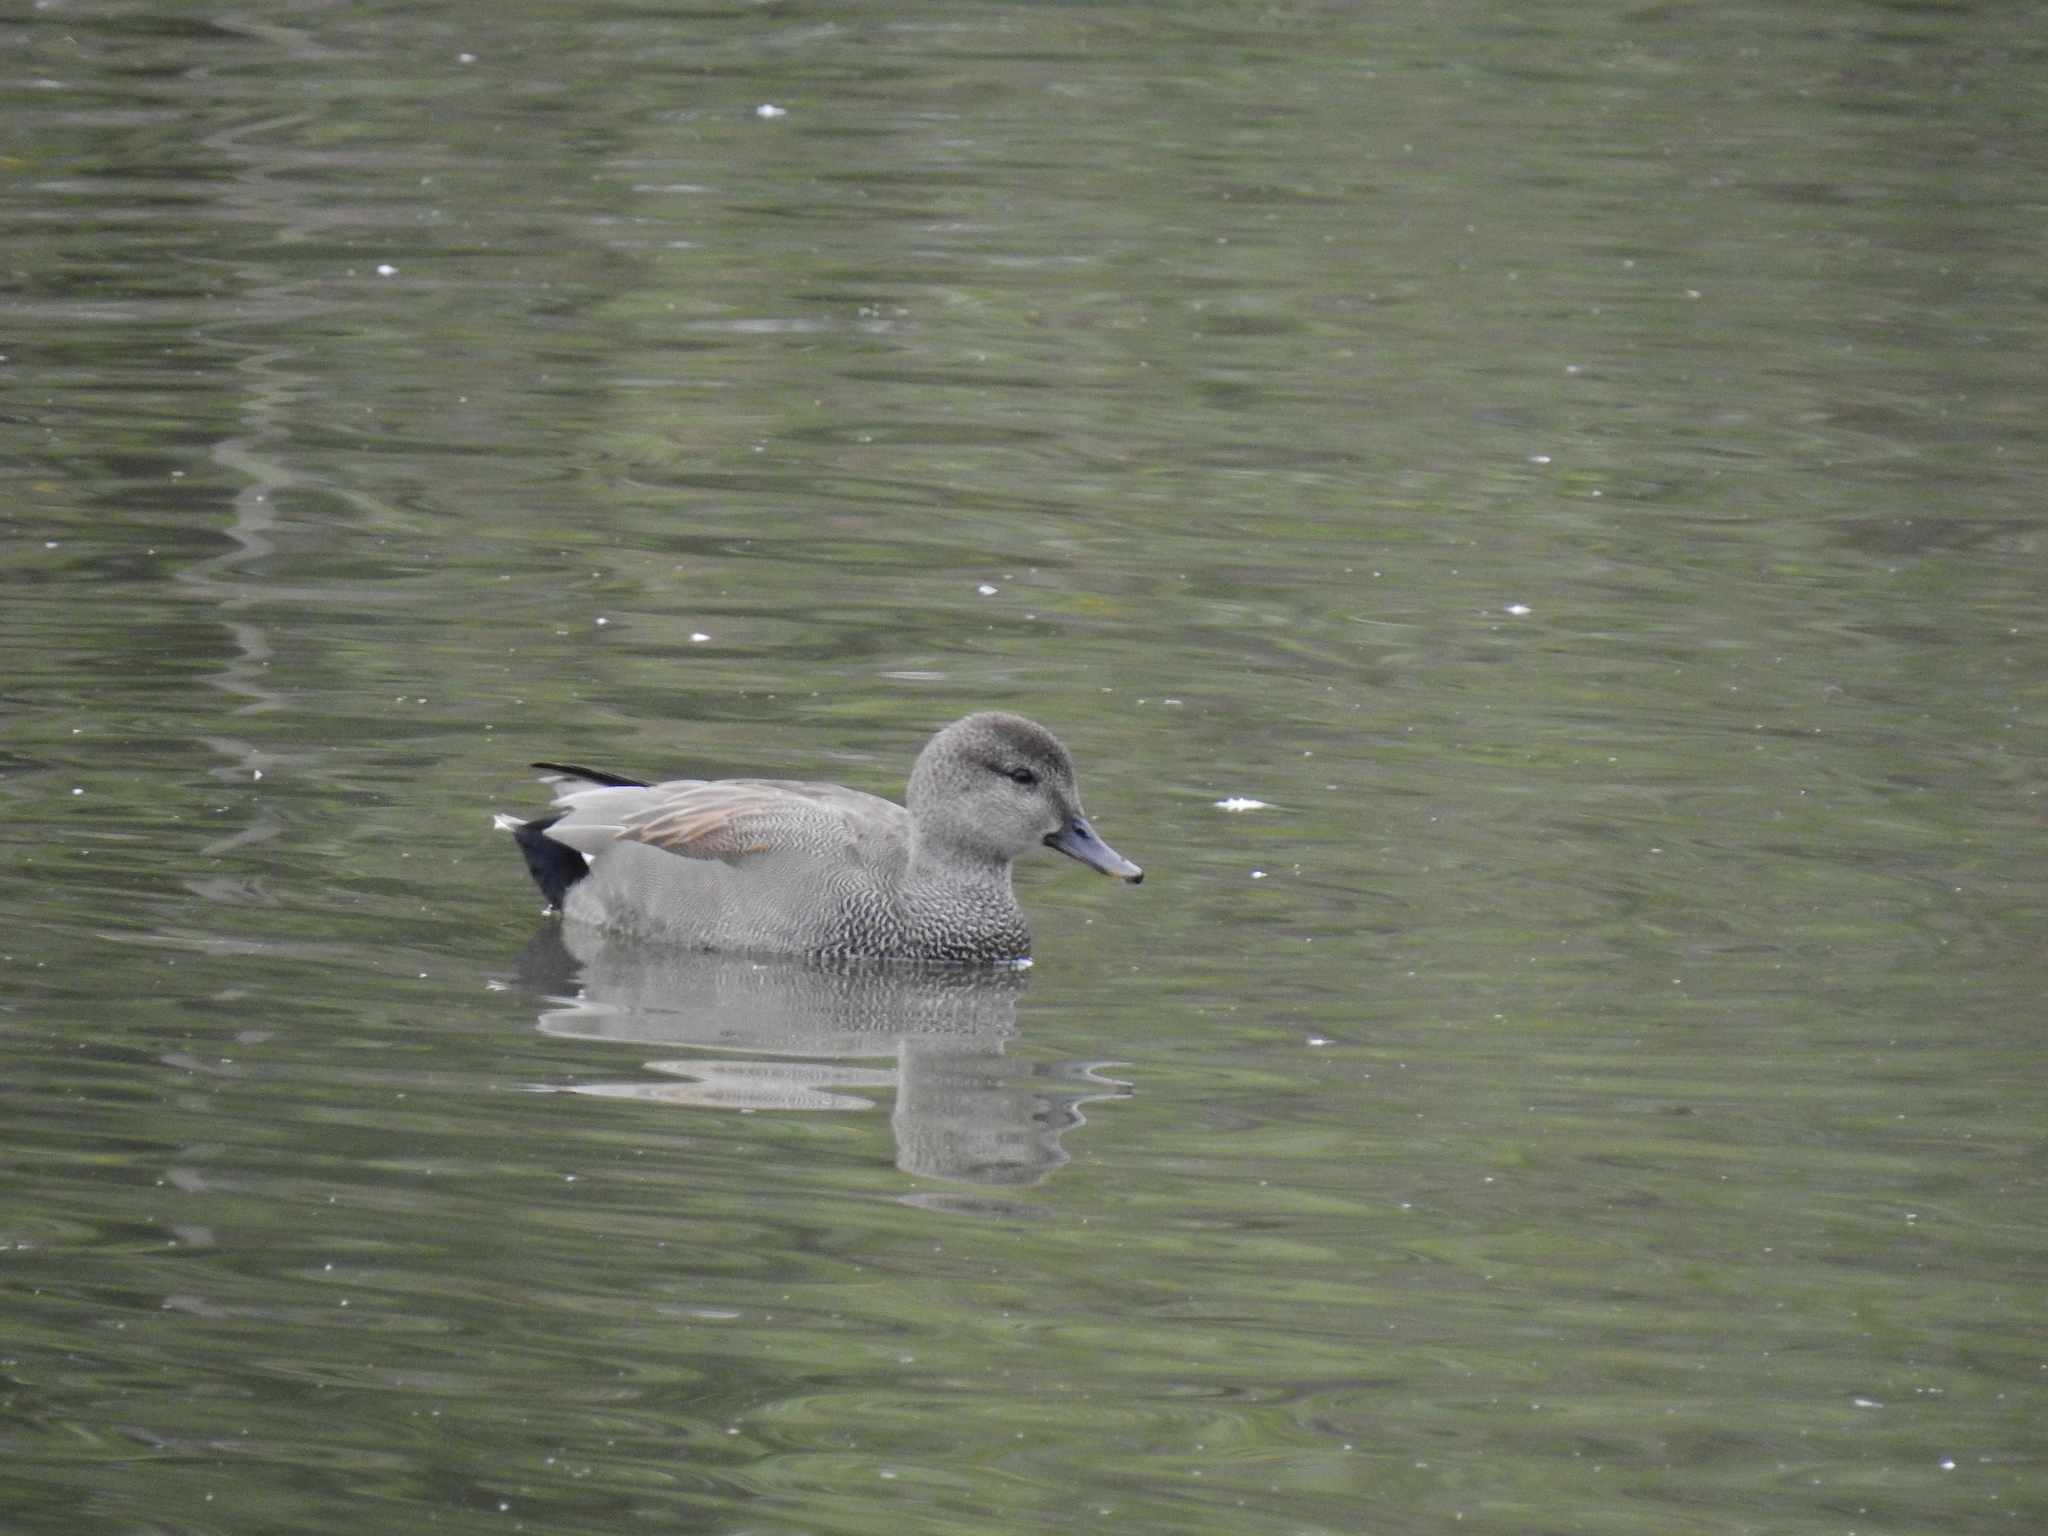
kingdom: Animalia
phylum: Chordata
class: Aves
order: Anseriformes
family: Anatidae
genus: Mareca
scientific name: Mareca strepera
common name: Gadwall
